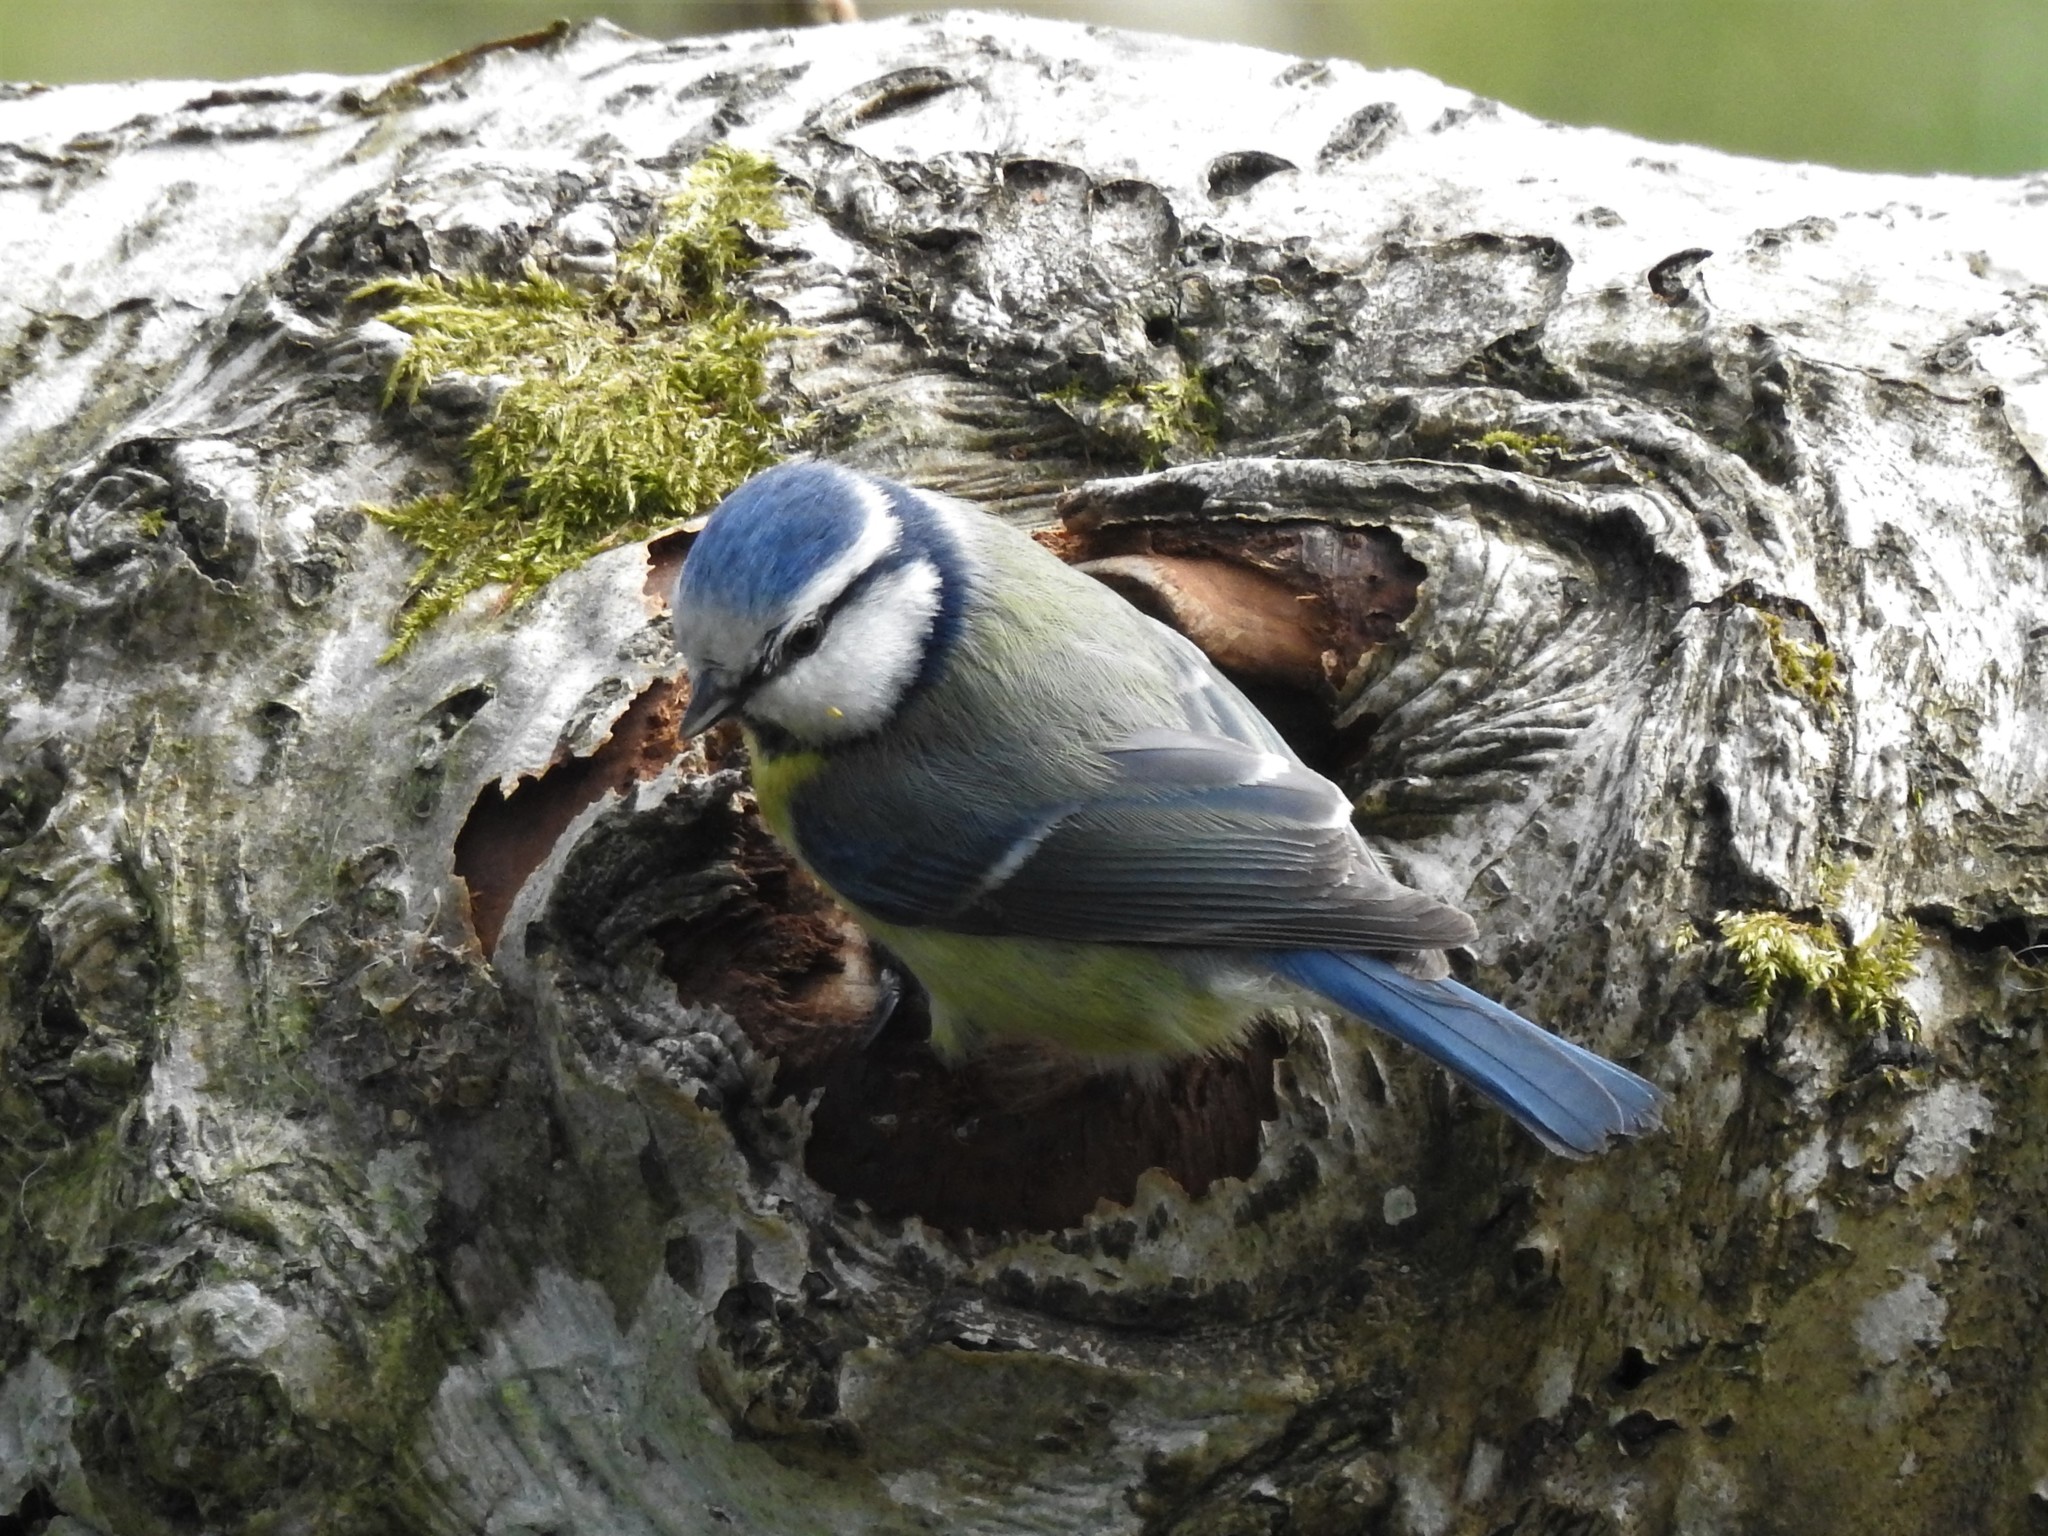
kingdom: Animalia
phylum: Chordata
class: Aves
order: Passeriformes
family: Paridae
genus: Cyanistes
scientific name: Cyanistes caeruleus
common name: Eurasian blue tit
